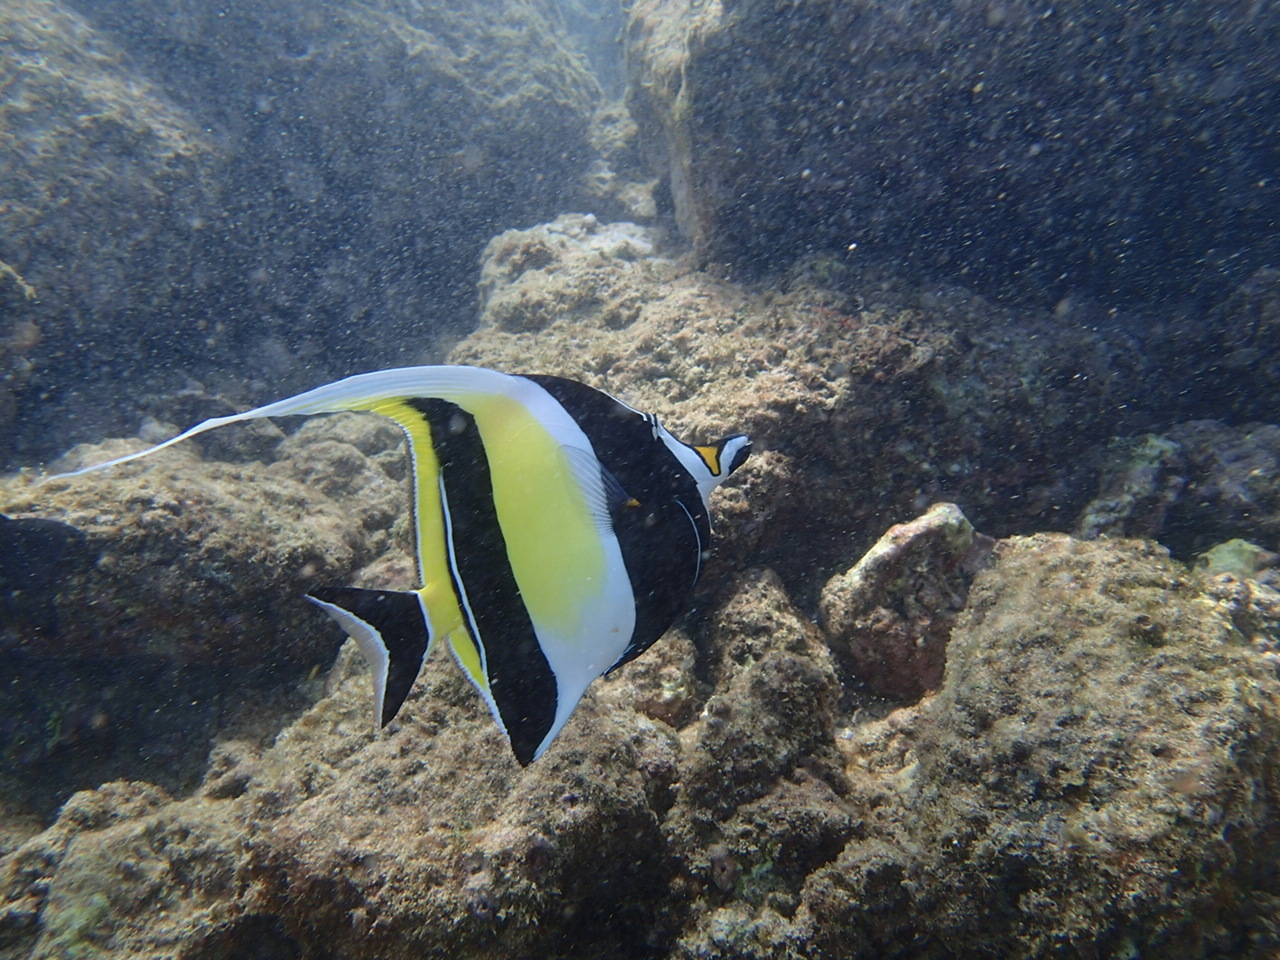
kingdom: Animalia
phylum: Chordata
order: Perciformes
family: Zanclidae
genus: Zanclus
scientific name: Zanclus cornutus
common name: Moorish idol
